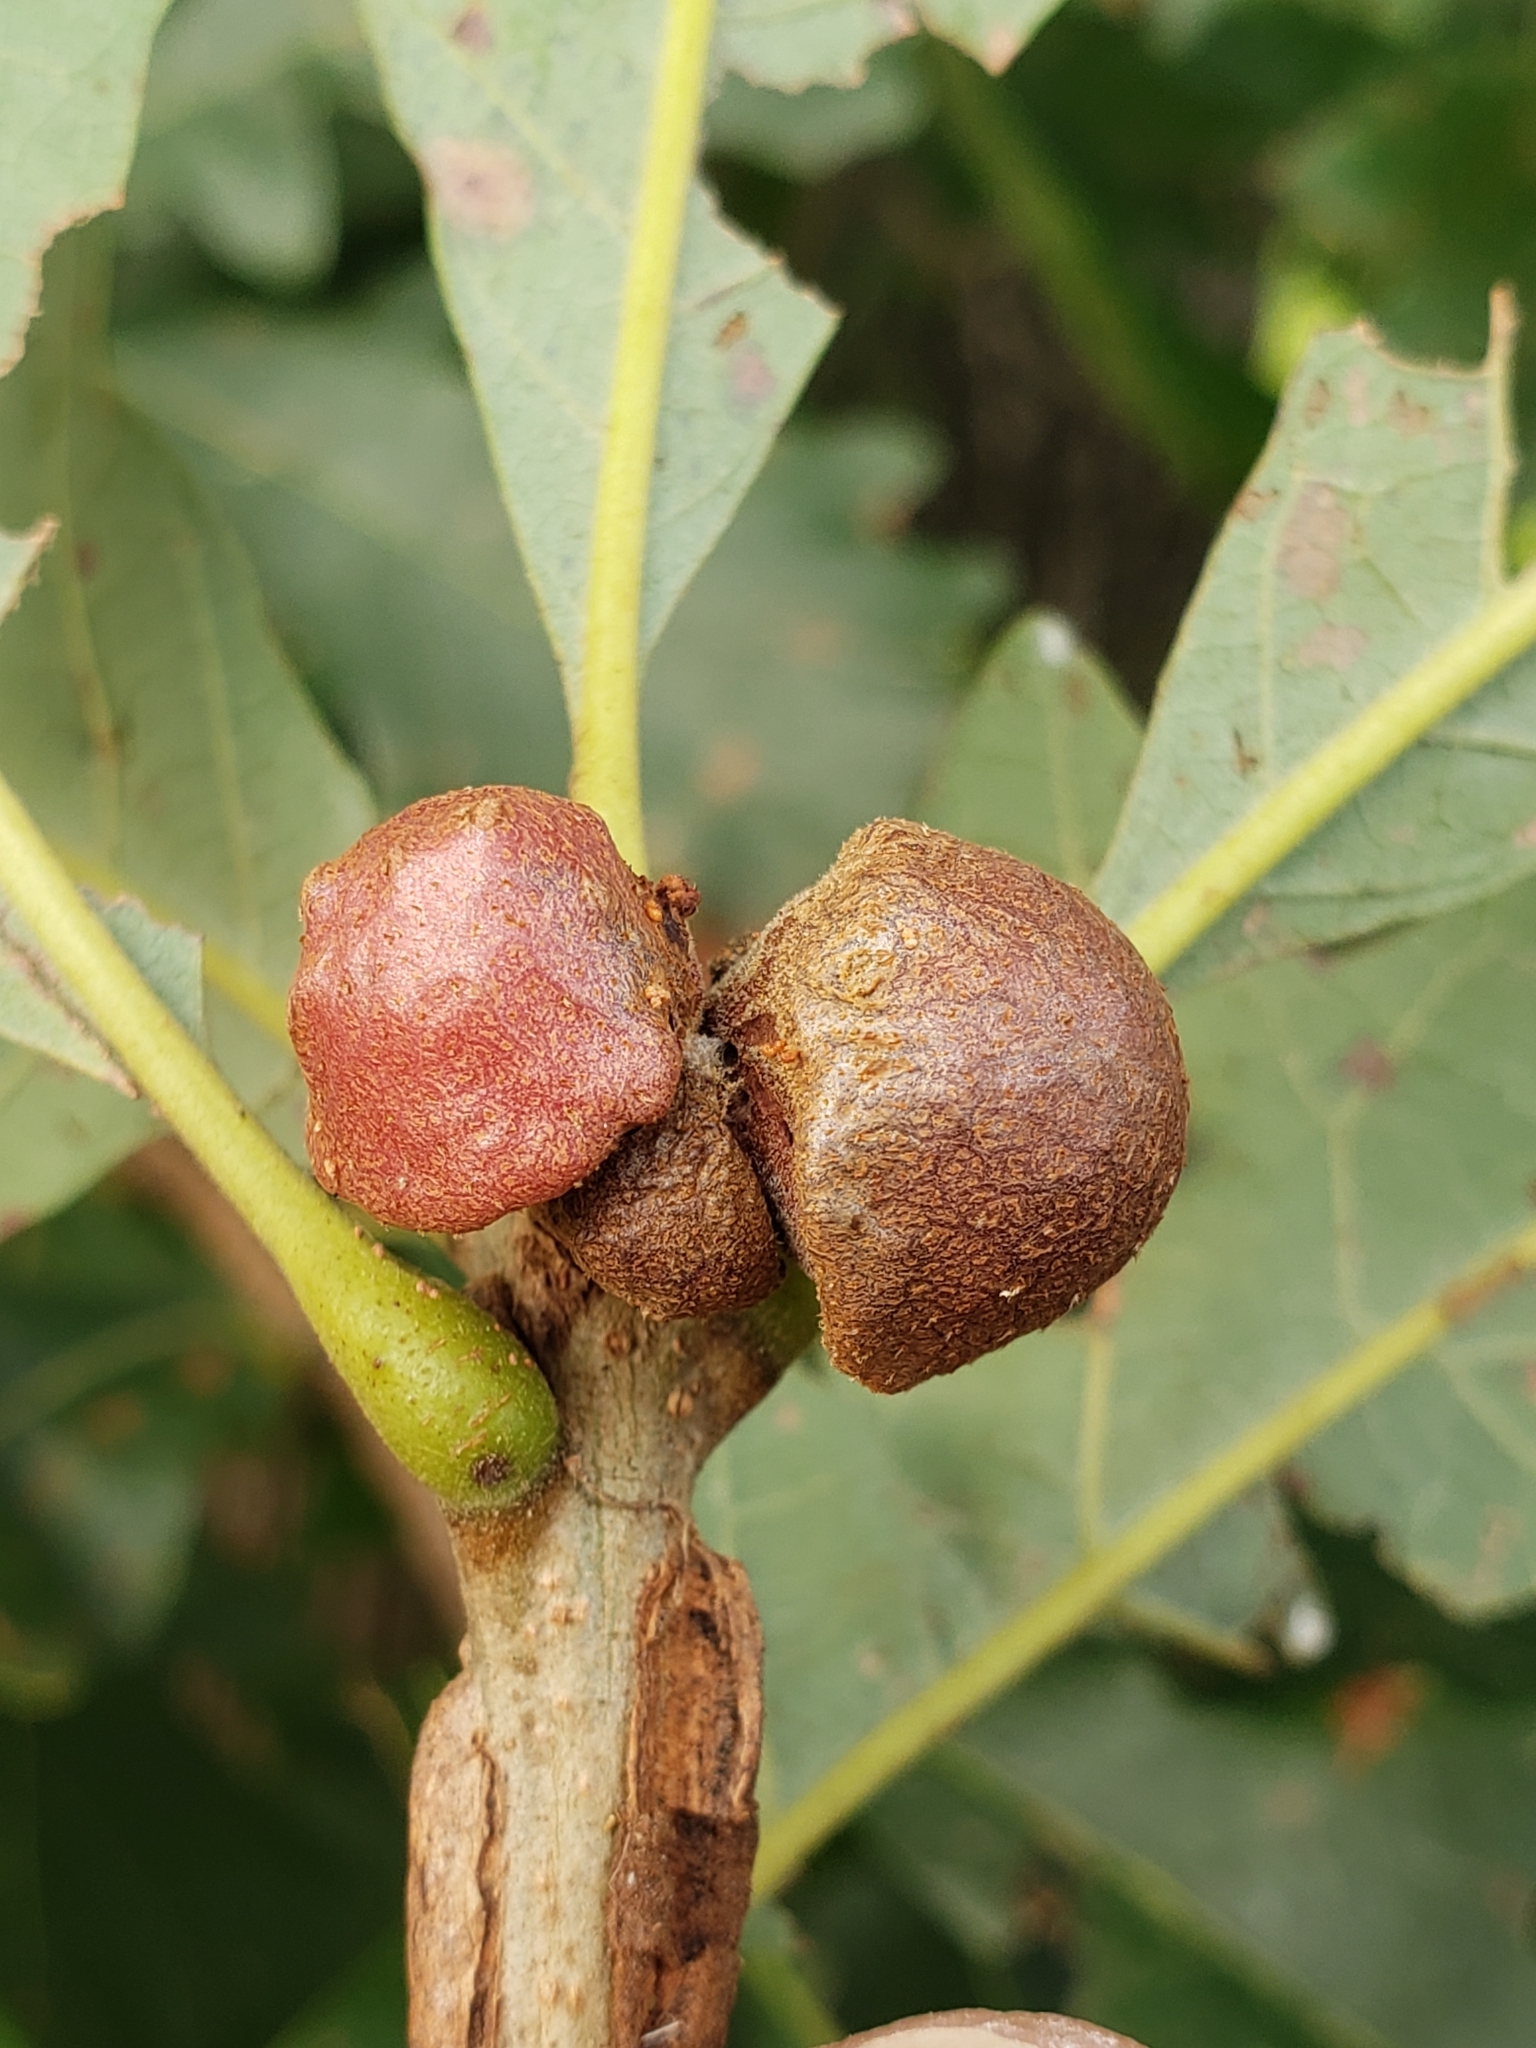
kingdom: Animalia
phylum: Arthropoda
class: Insecta
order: Hymenoptera
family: Cynipidae
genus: Andricus
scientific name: Andricus
